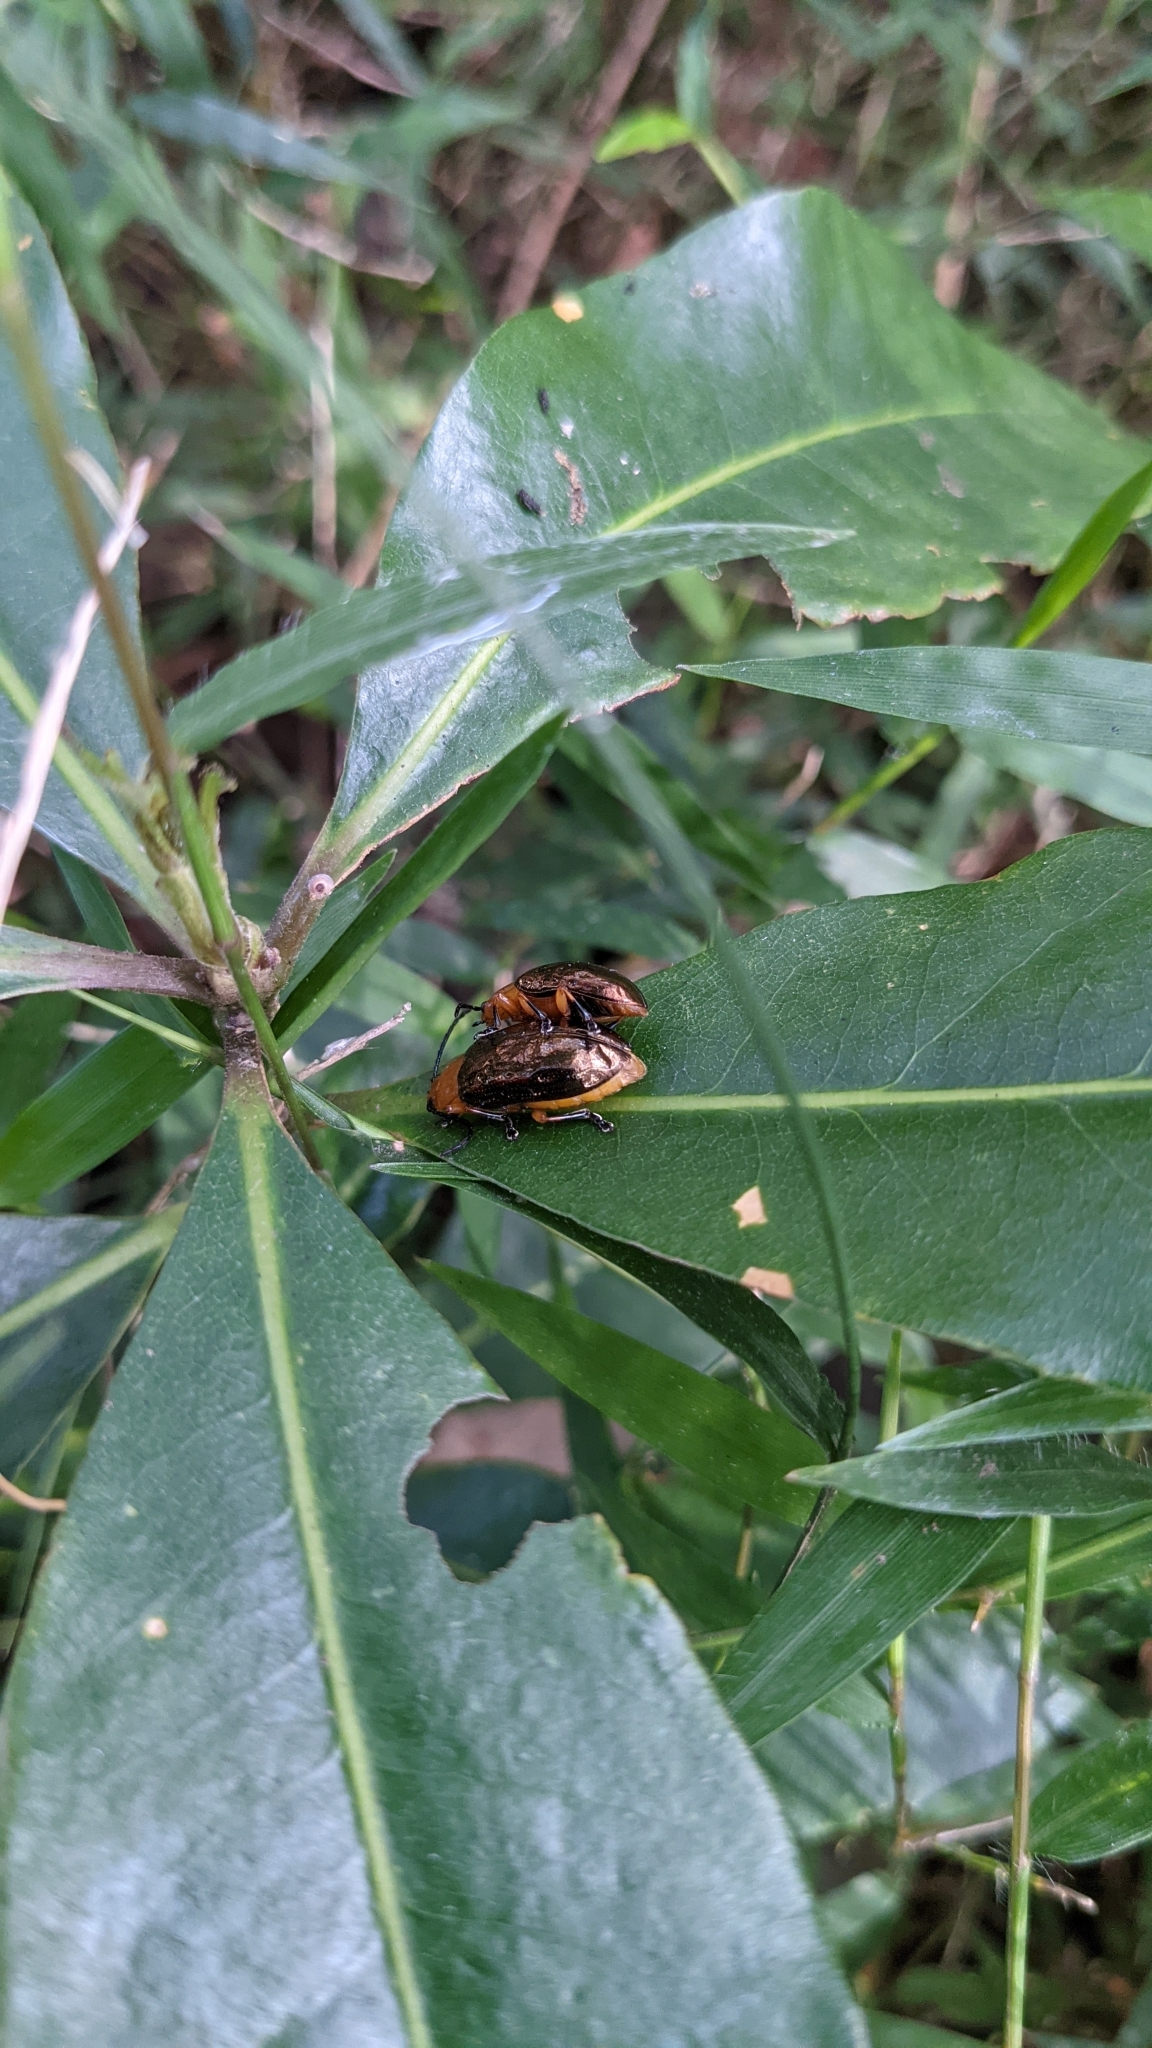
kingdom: Animalia
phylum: Arthropoda
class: Insecta
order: Coleoptera
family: Chrysomelidae
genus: Lamprolina
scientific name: Lamprolina
